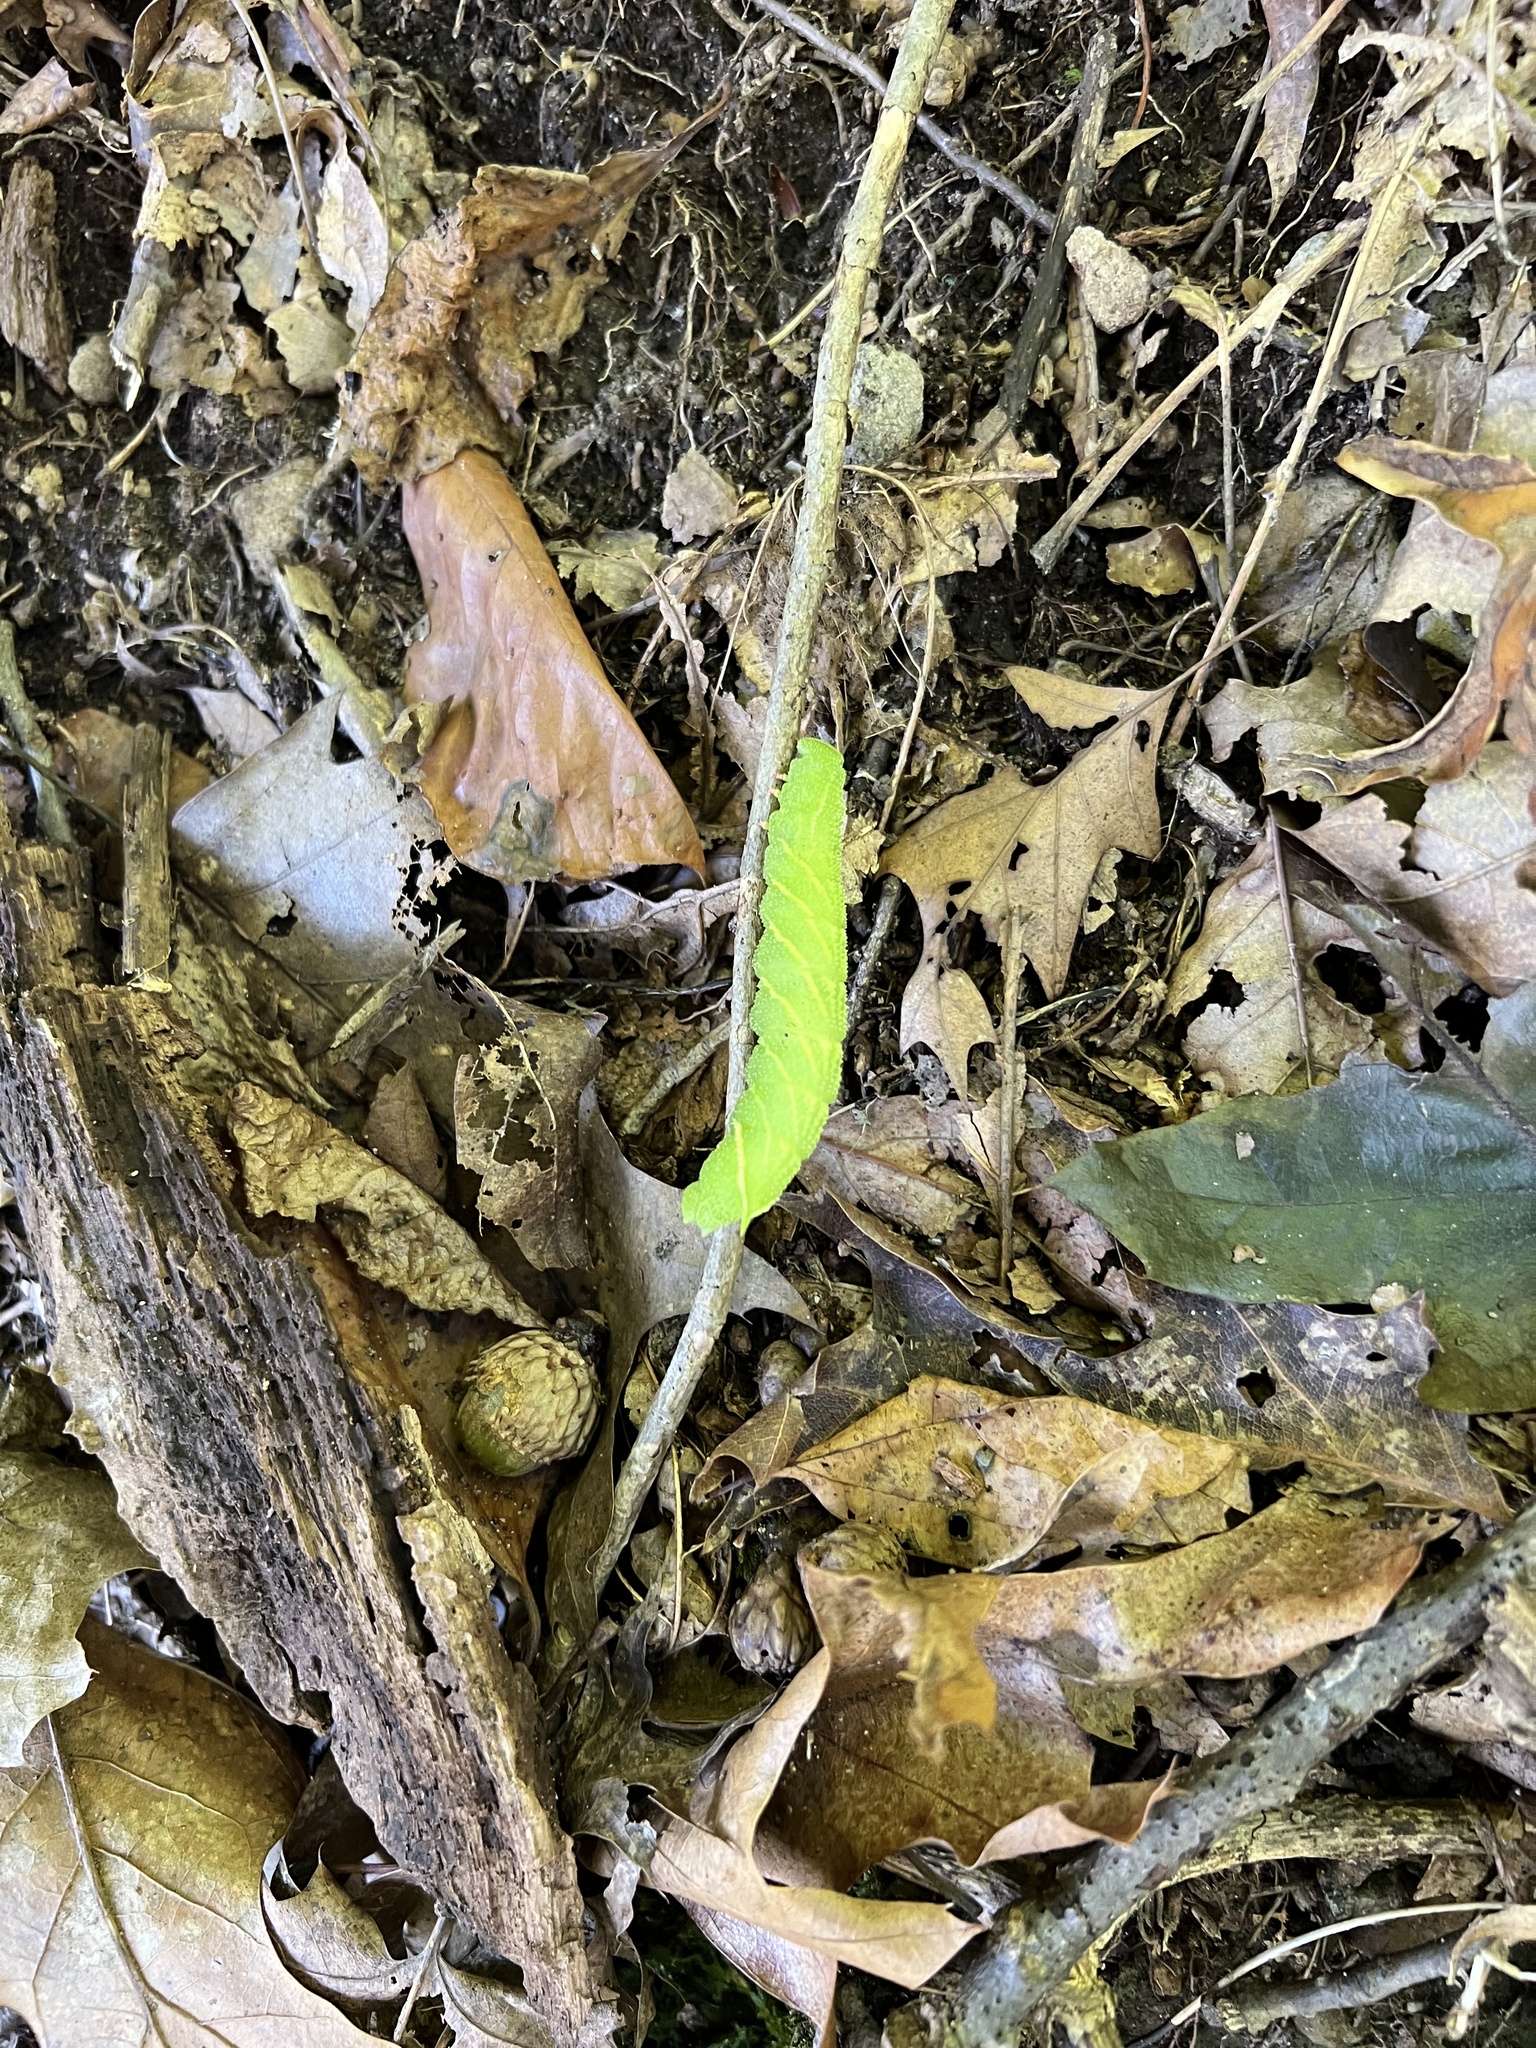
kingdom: Animalia
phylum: Arthropoda
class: Insecta
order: Lepidoptera
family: Sphingidae
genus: Paonias
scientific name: Paonias excaecata
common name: Blind-eyed sphinx
